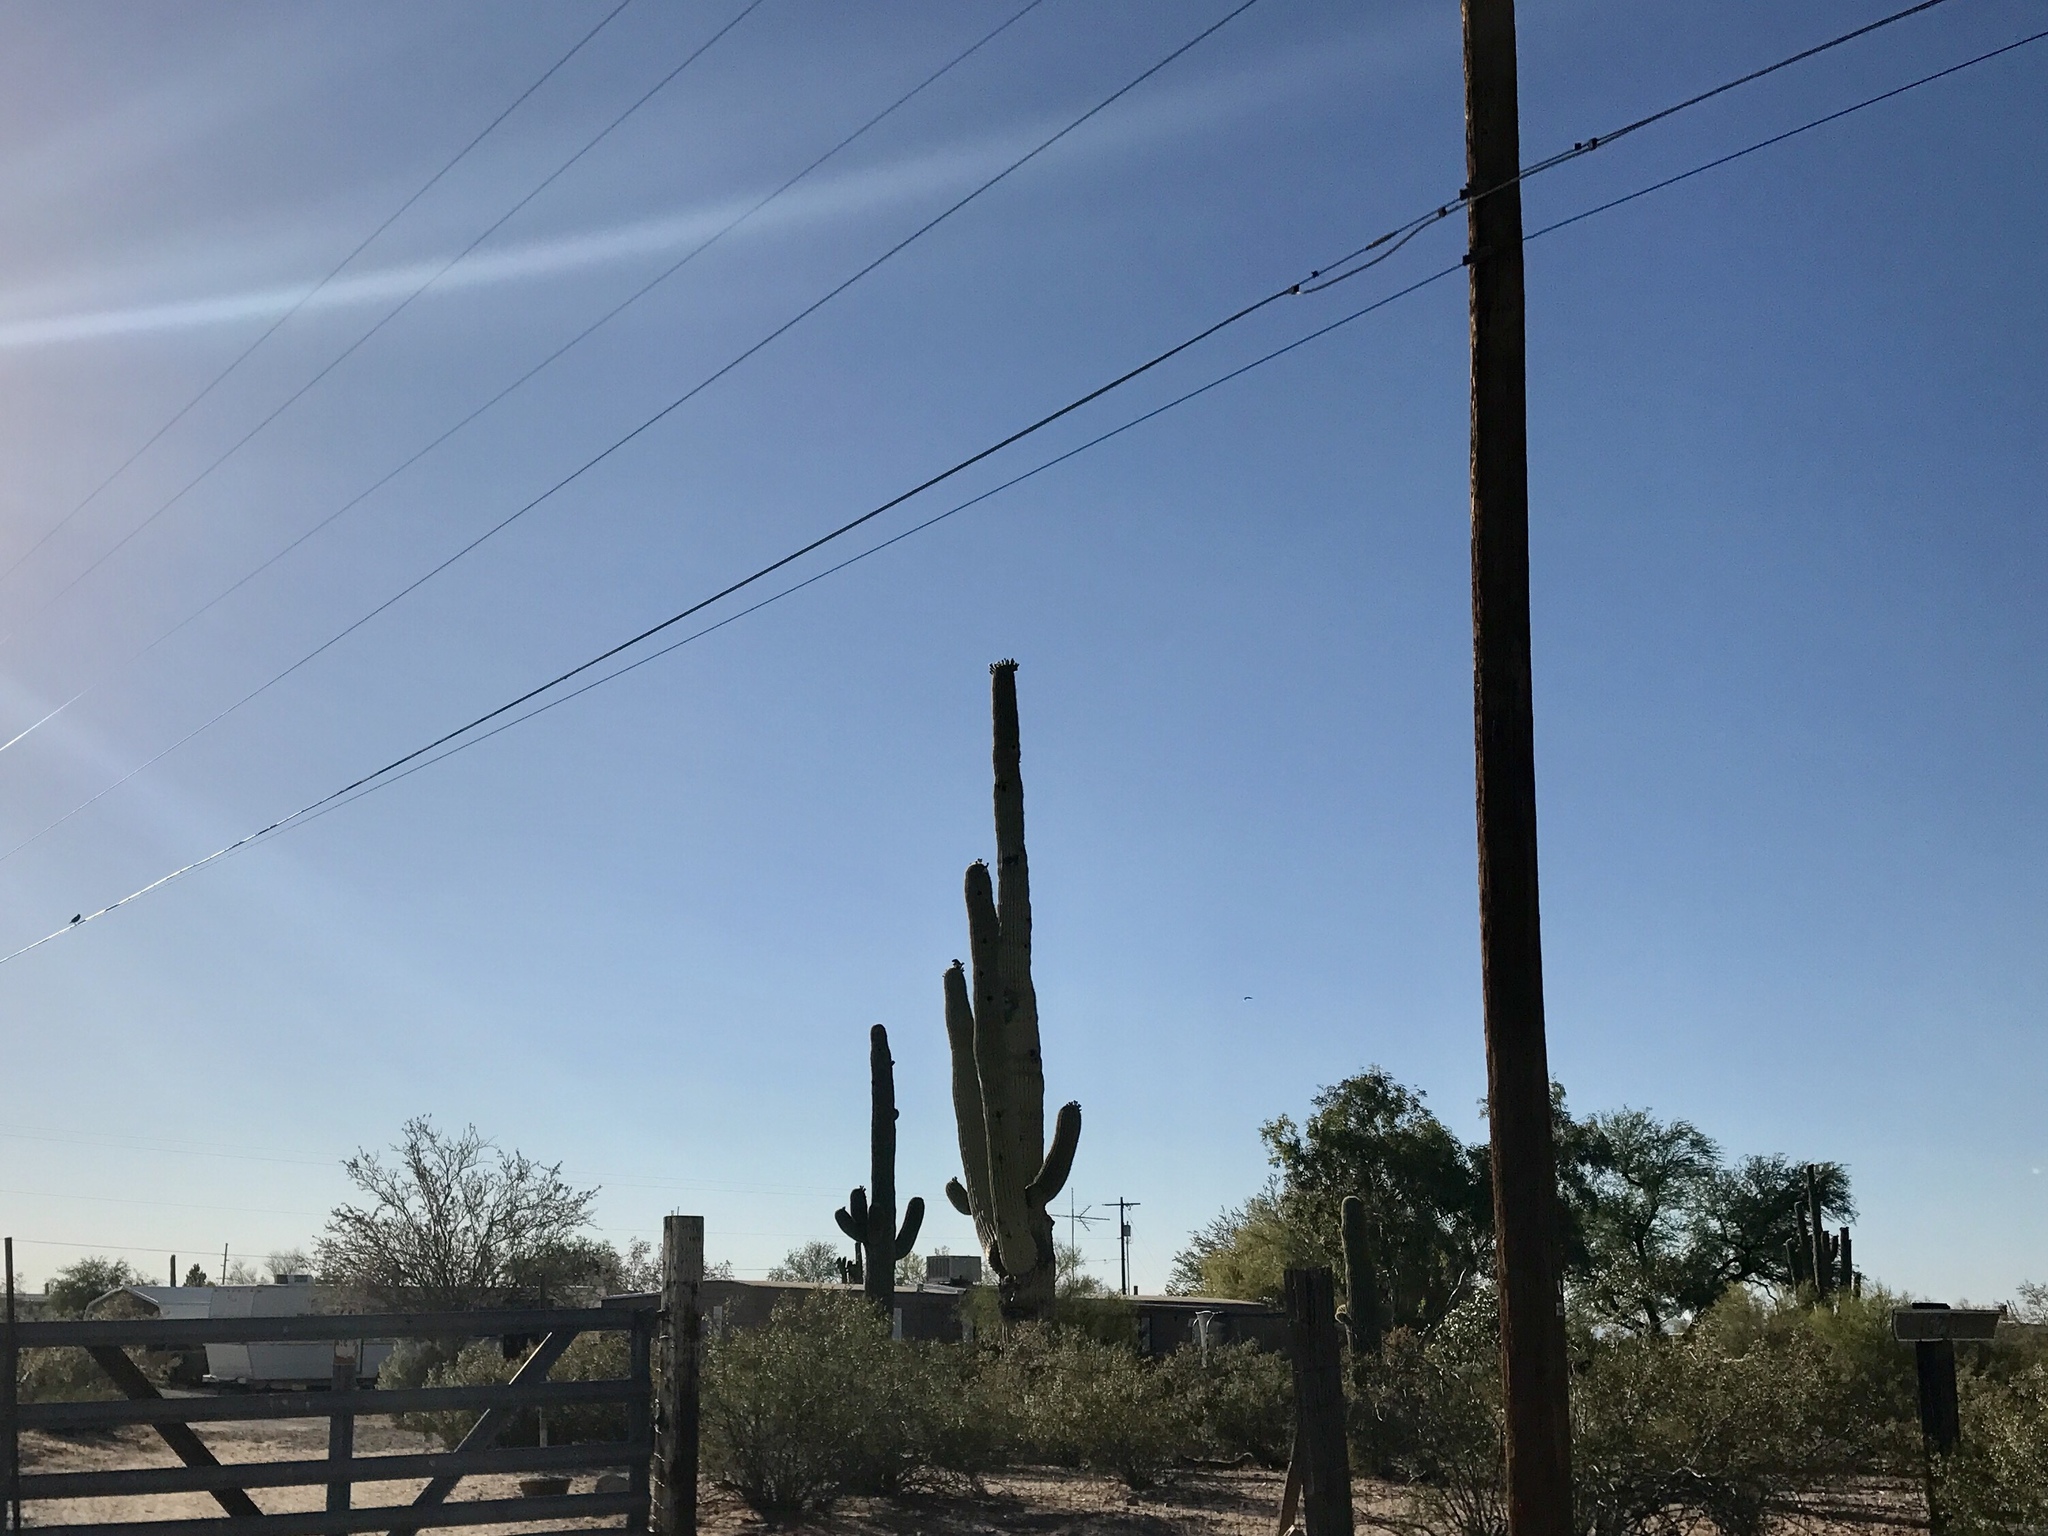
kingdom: Plantae
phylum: Tracheophyta
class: Magnoliopsida
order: Caryophyllales
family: Cactaceae
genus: Carnegiea
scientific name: Carnegiea gigantea
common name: Saguaro
